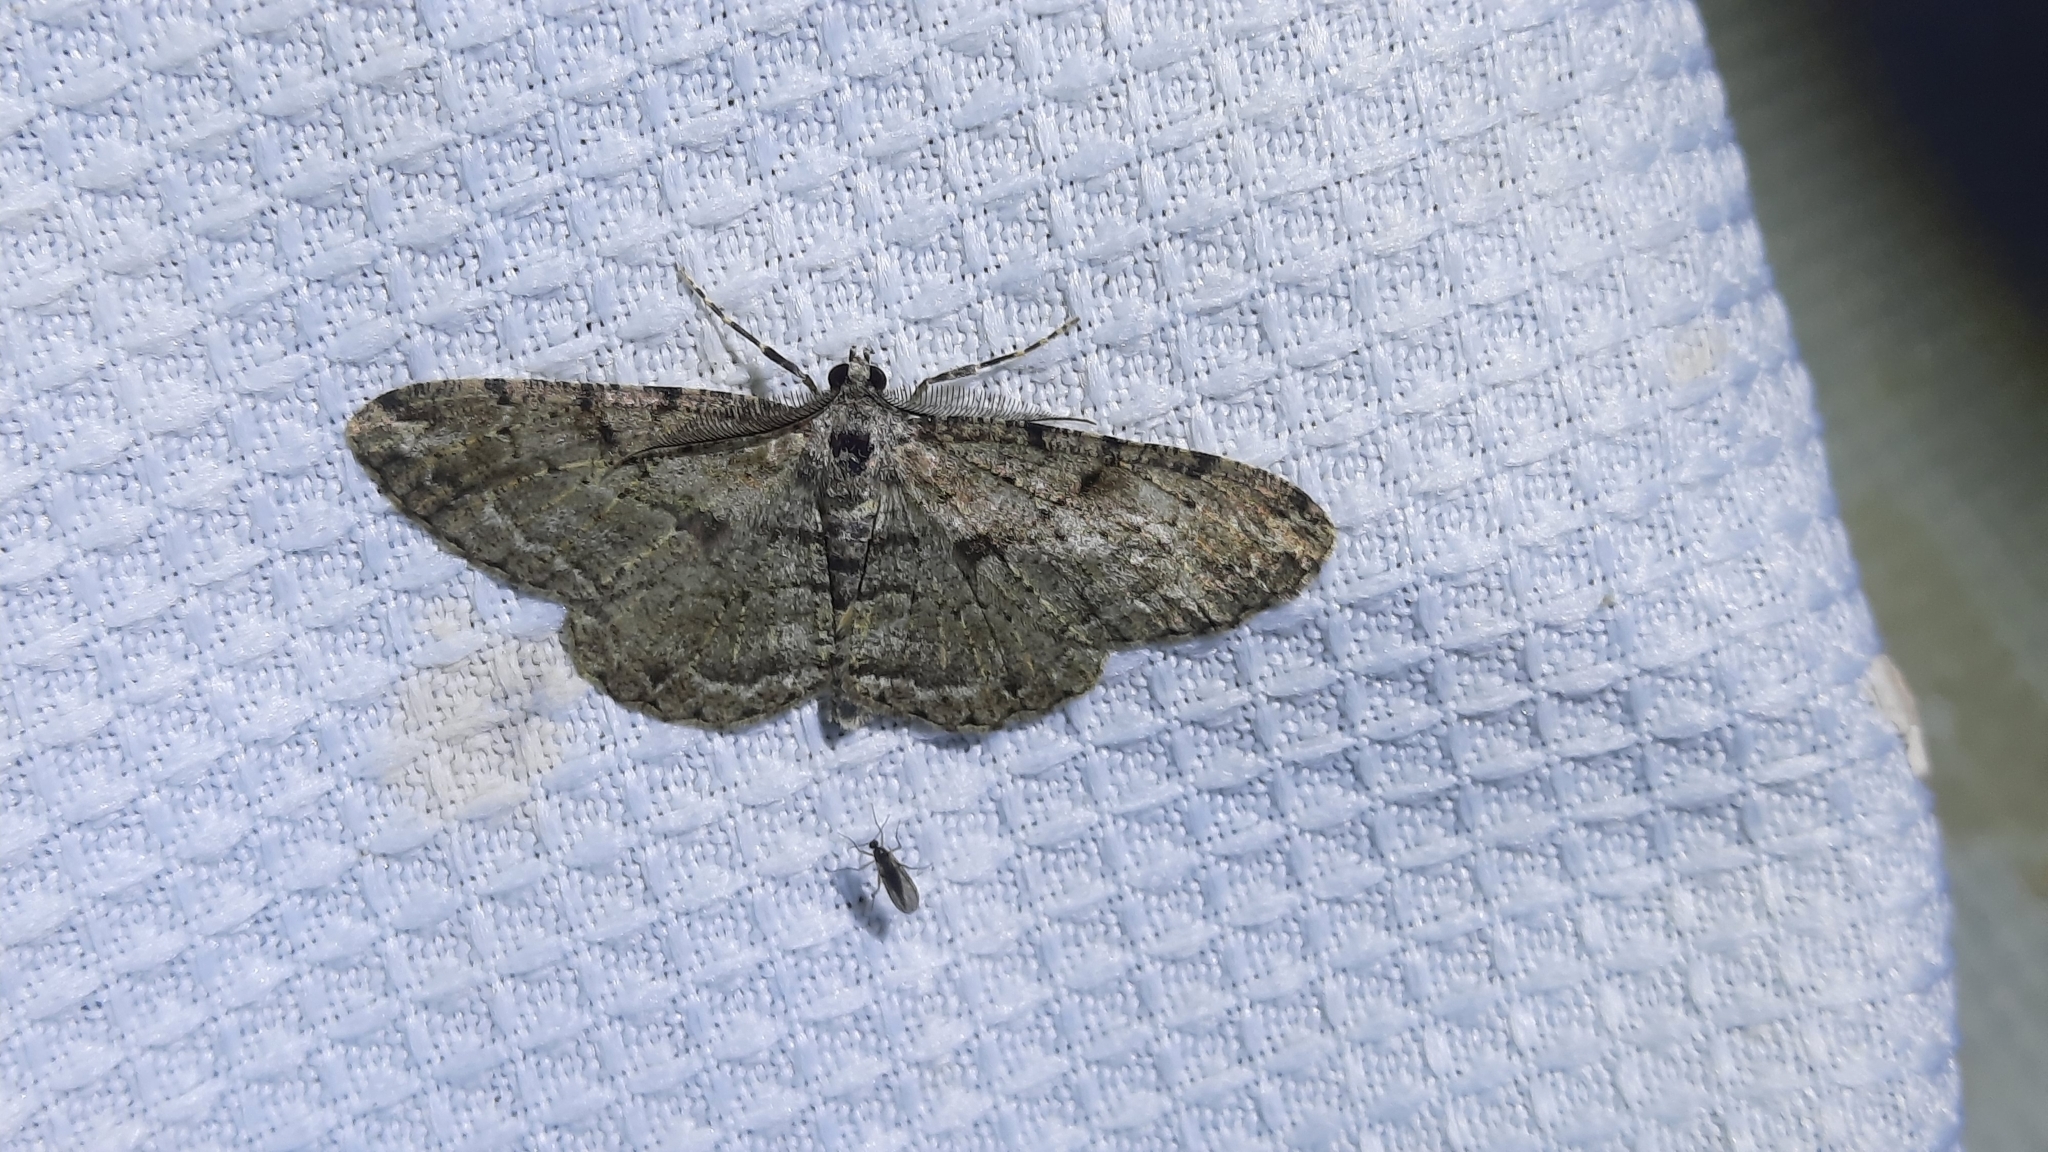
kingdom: Animalia
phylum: Arthropoda
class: Insecta
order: Lepidoptera
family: Geometridae
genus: Peribatodes
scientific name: Peribatodes rhomboidaria
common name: Willow beauty
